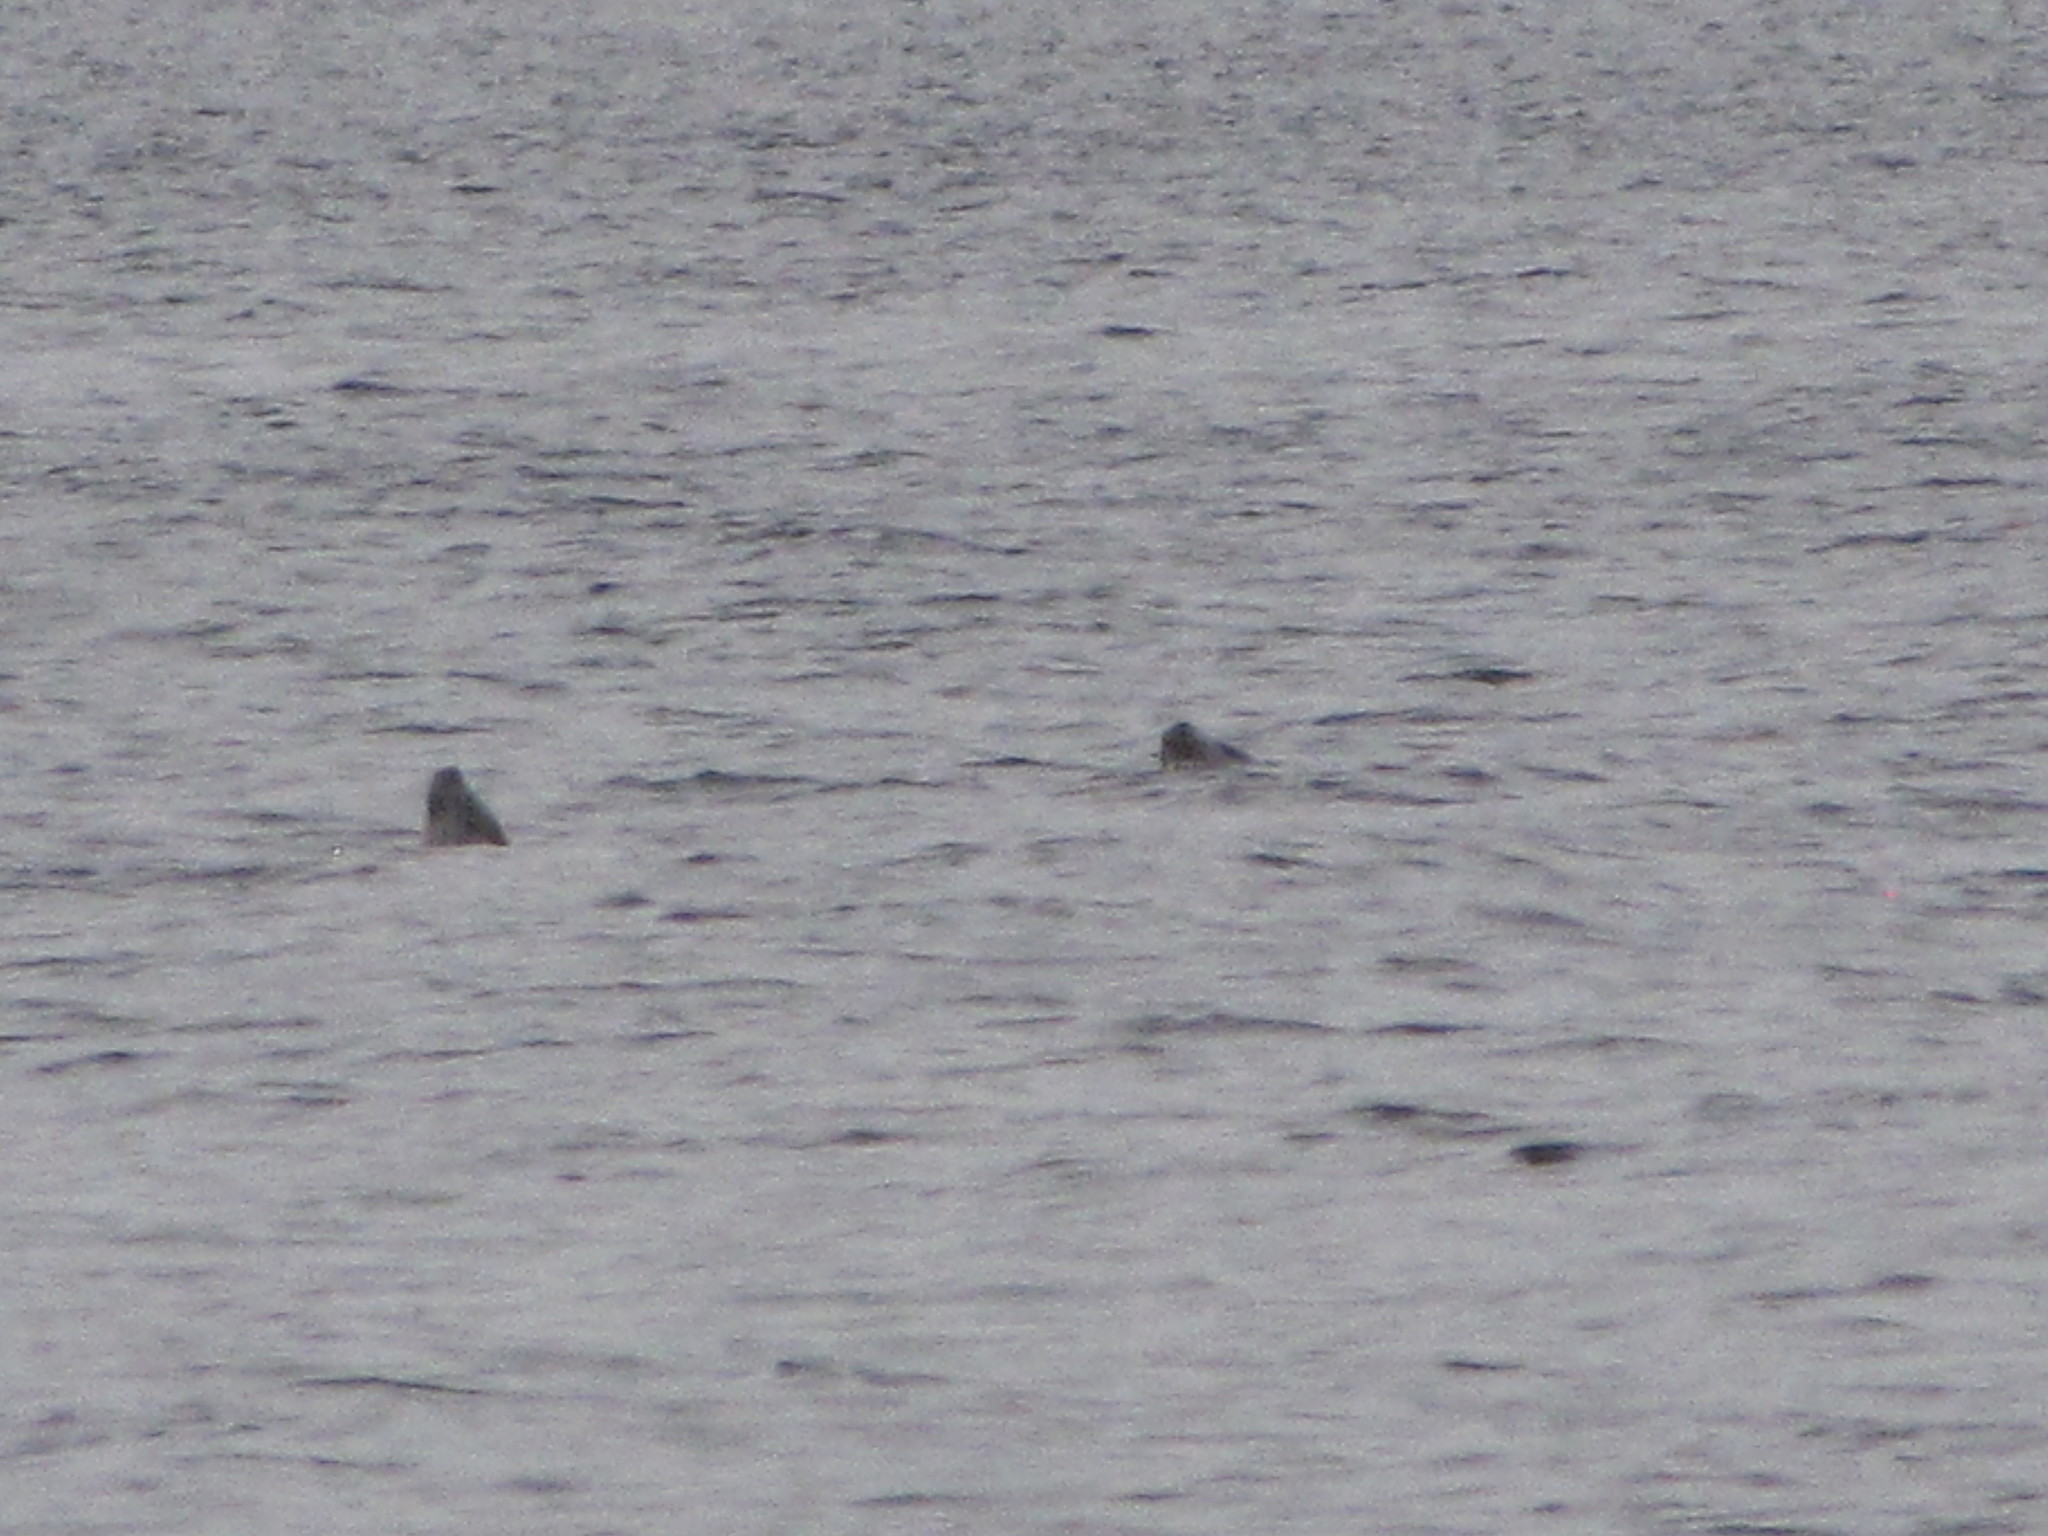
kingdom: Animalia
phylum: Chordata
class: Mammalia
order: Carnivora
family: Phocidae
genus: Phoca
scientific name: Phoca vitulina
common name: Harbor seal
